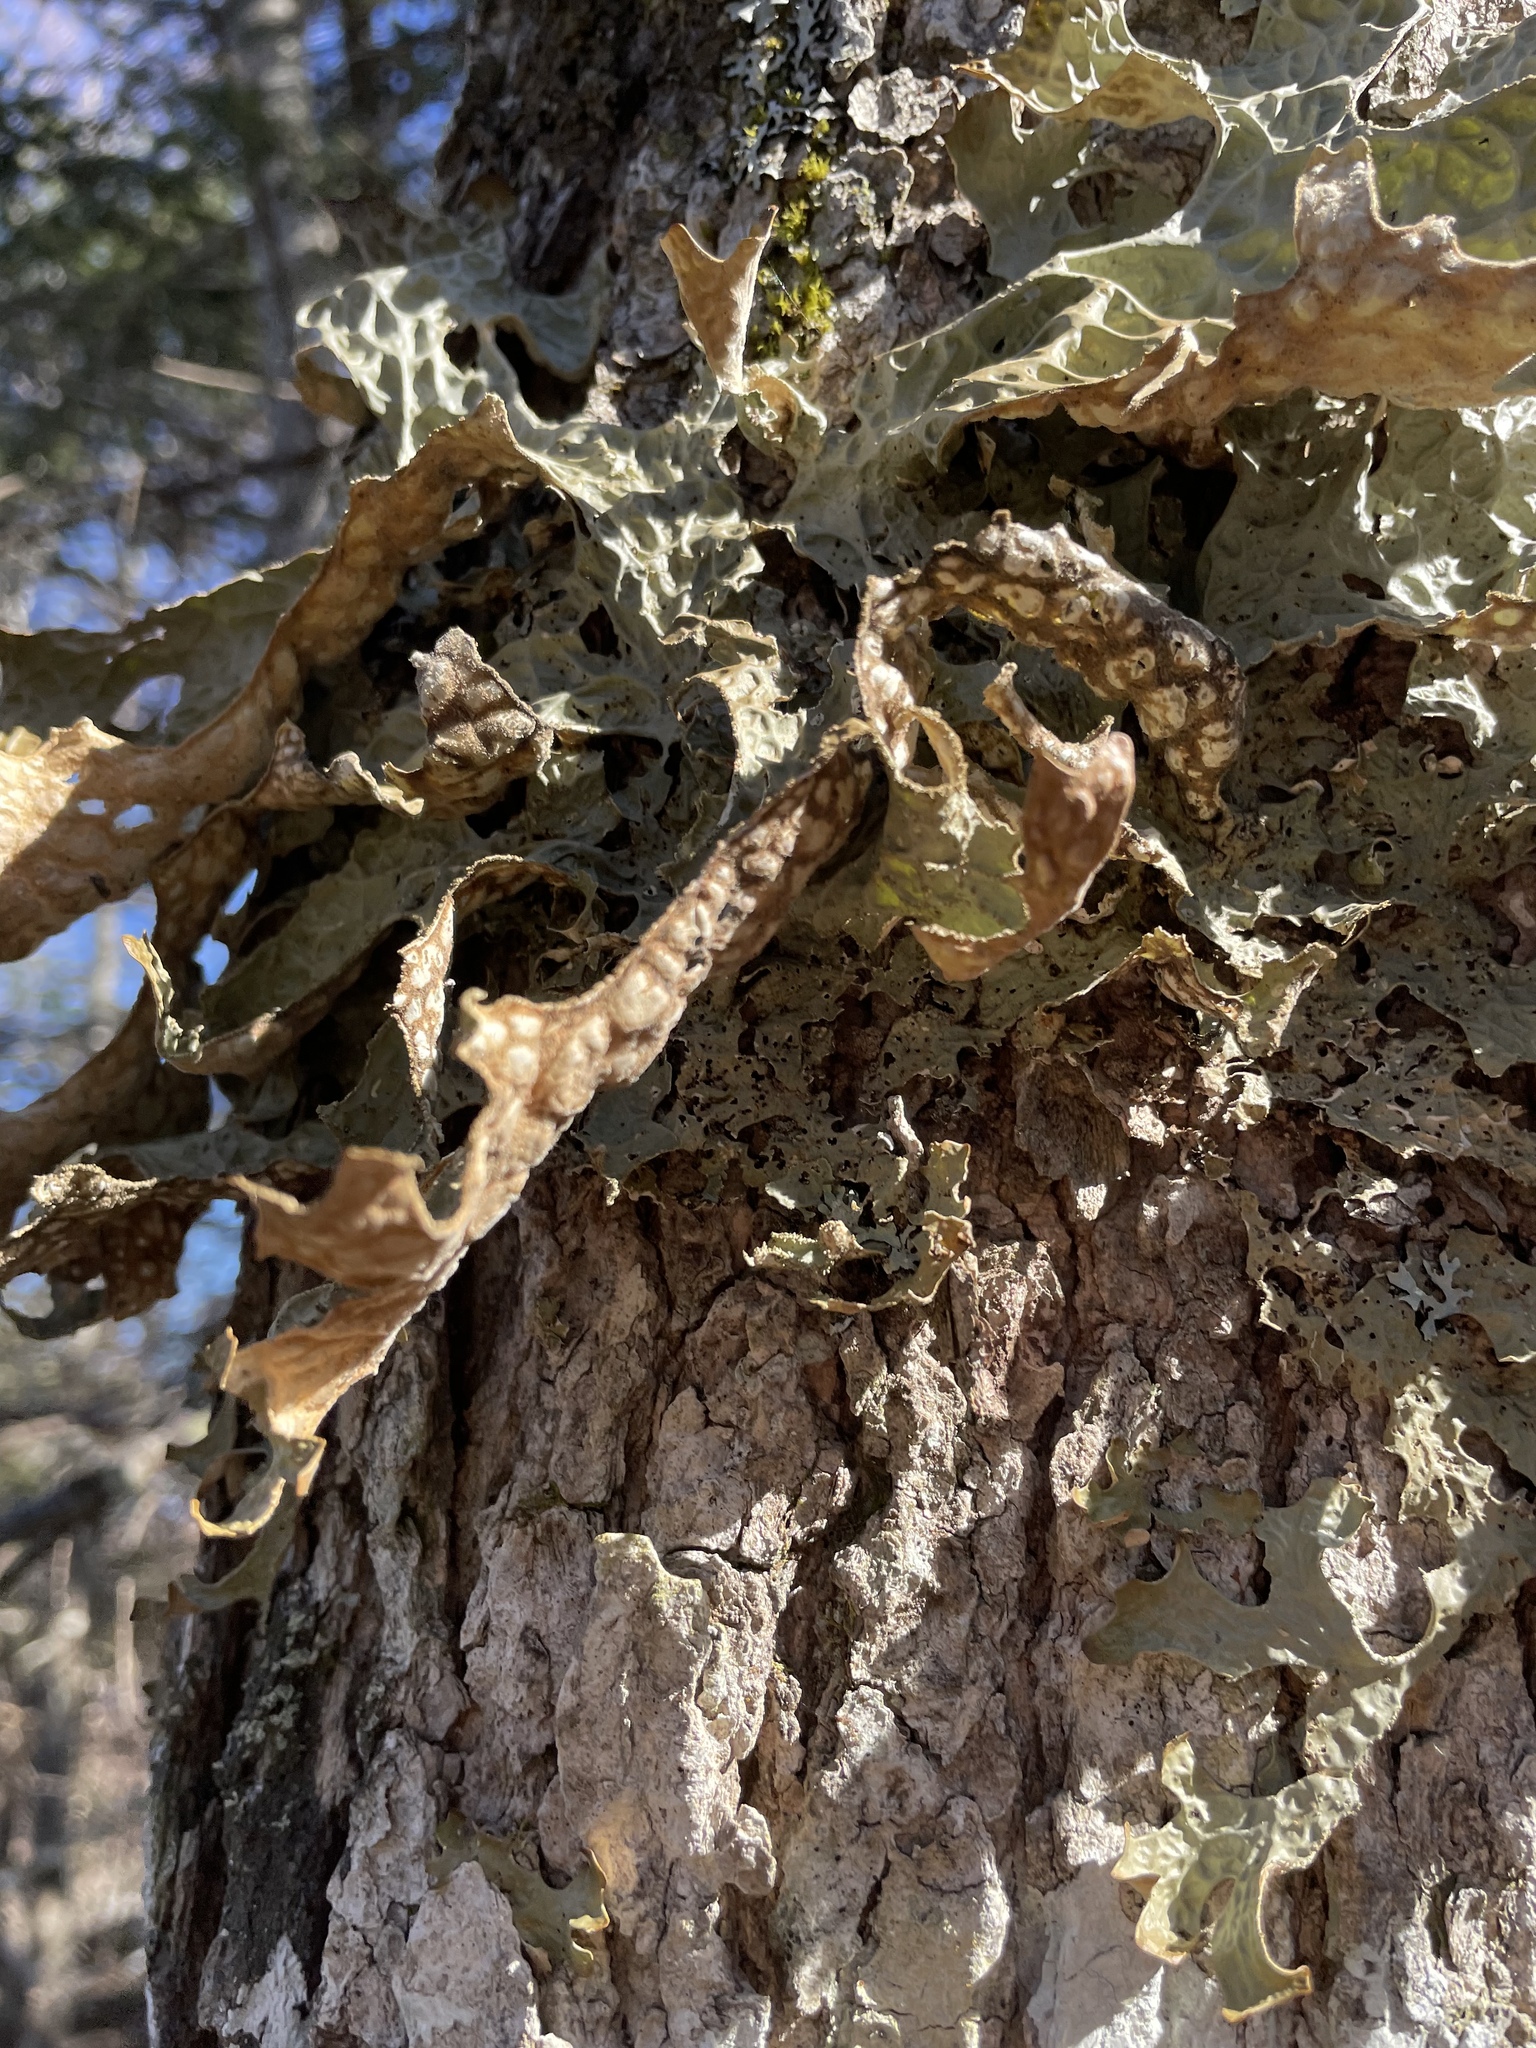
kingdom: Fungi
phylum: Ascomycota
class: Lecanoromycetes
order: Peltigerales
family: Lobariaceae
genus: Lobaria
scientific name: Lobaria pulmonaria
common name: Lungwort
